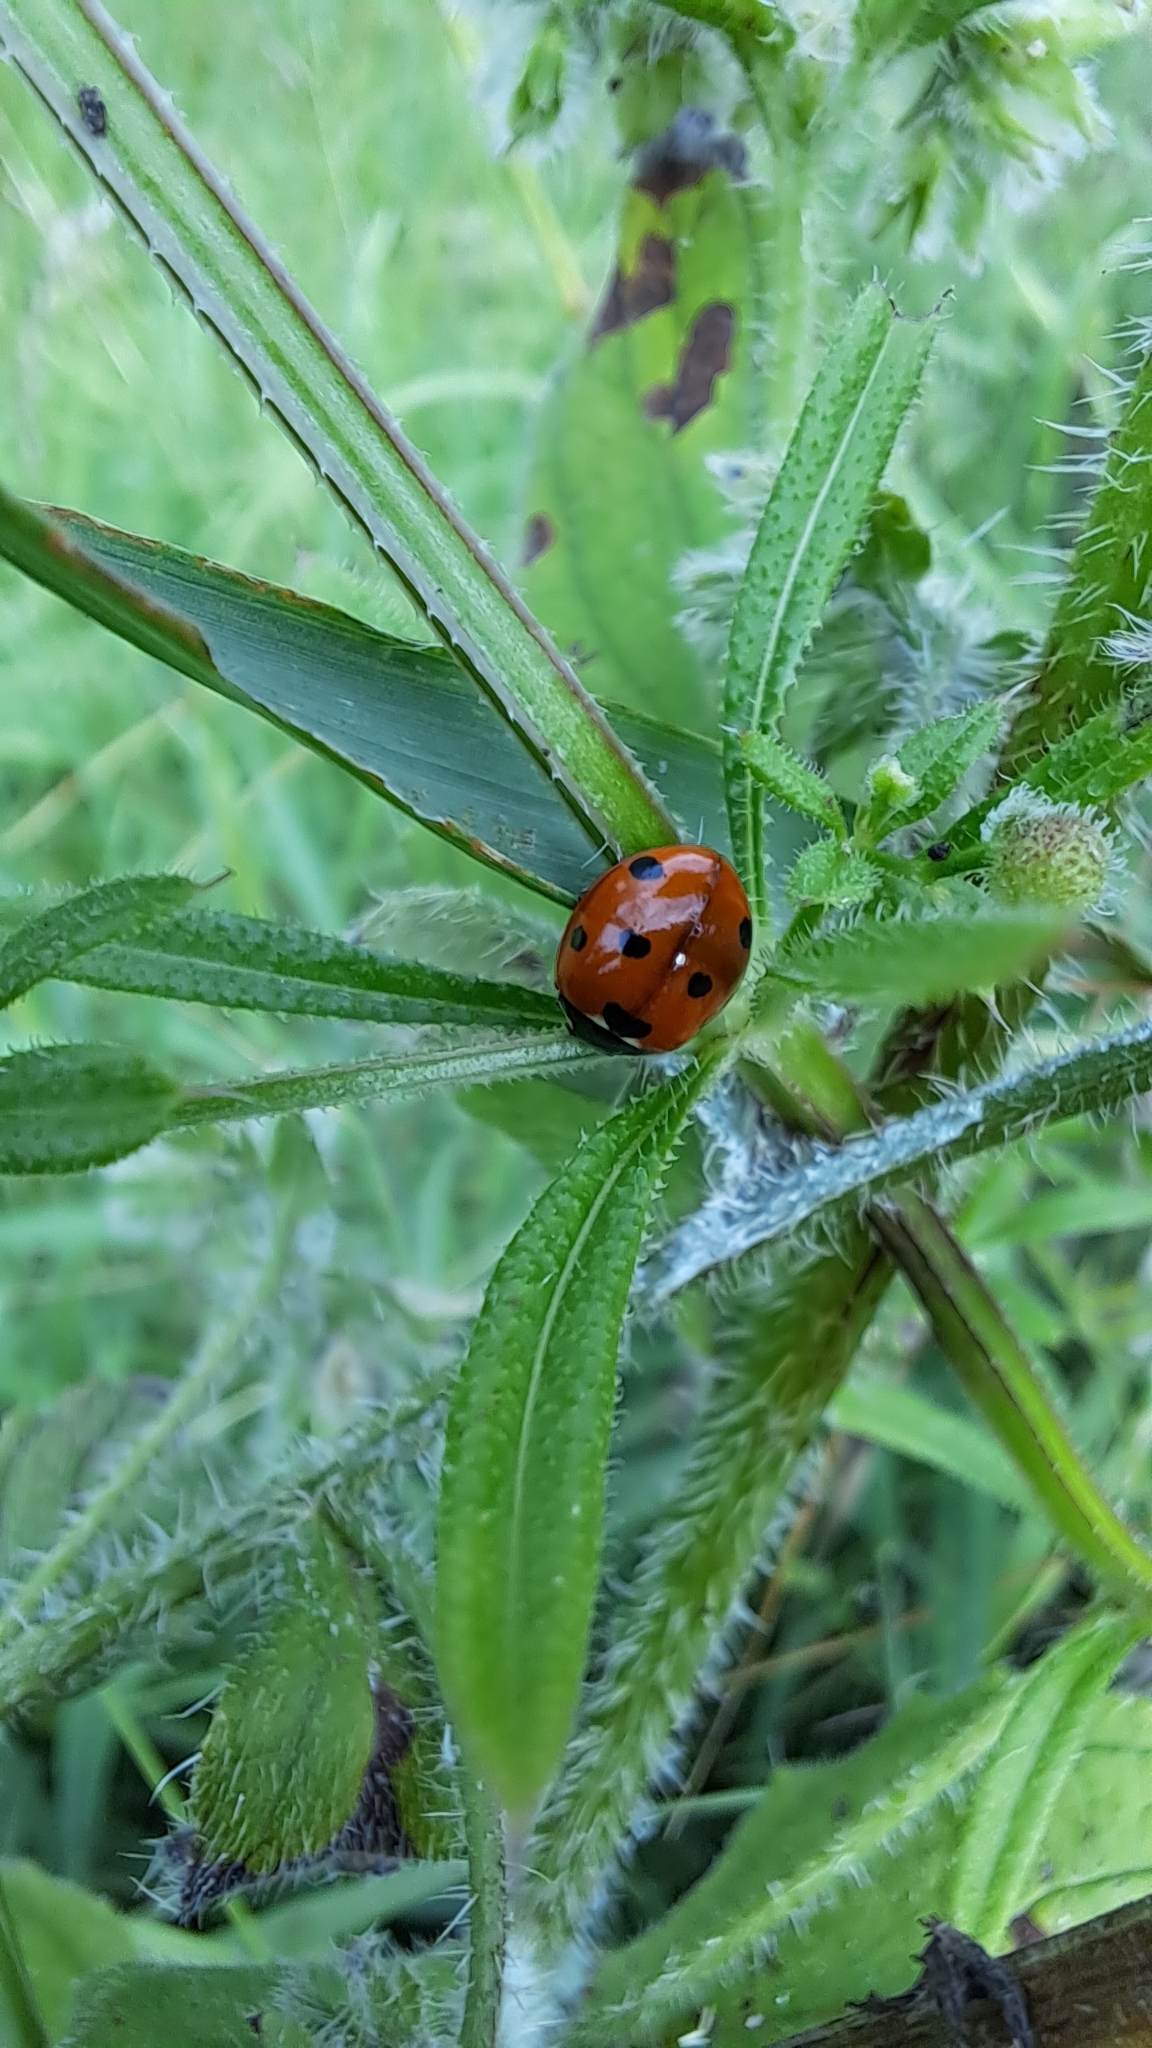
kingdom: Animalia
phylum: Arthropoda
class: Insecta
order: Coleoptera
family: Coccinellidae
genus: Coccinella
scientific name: Coccinella septempunctata
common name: Sevenspotted lady beetle
